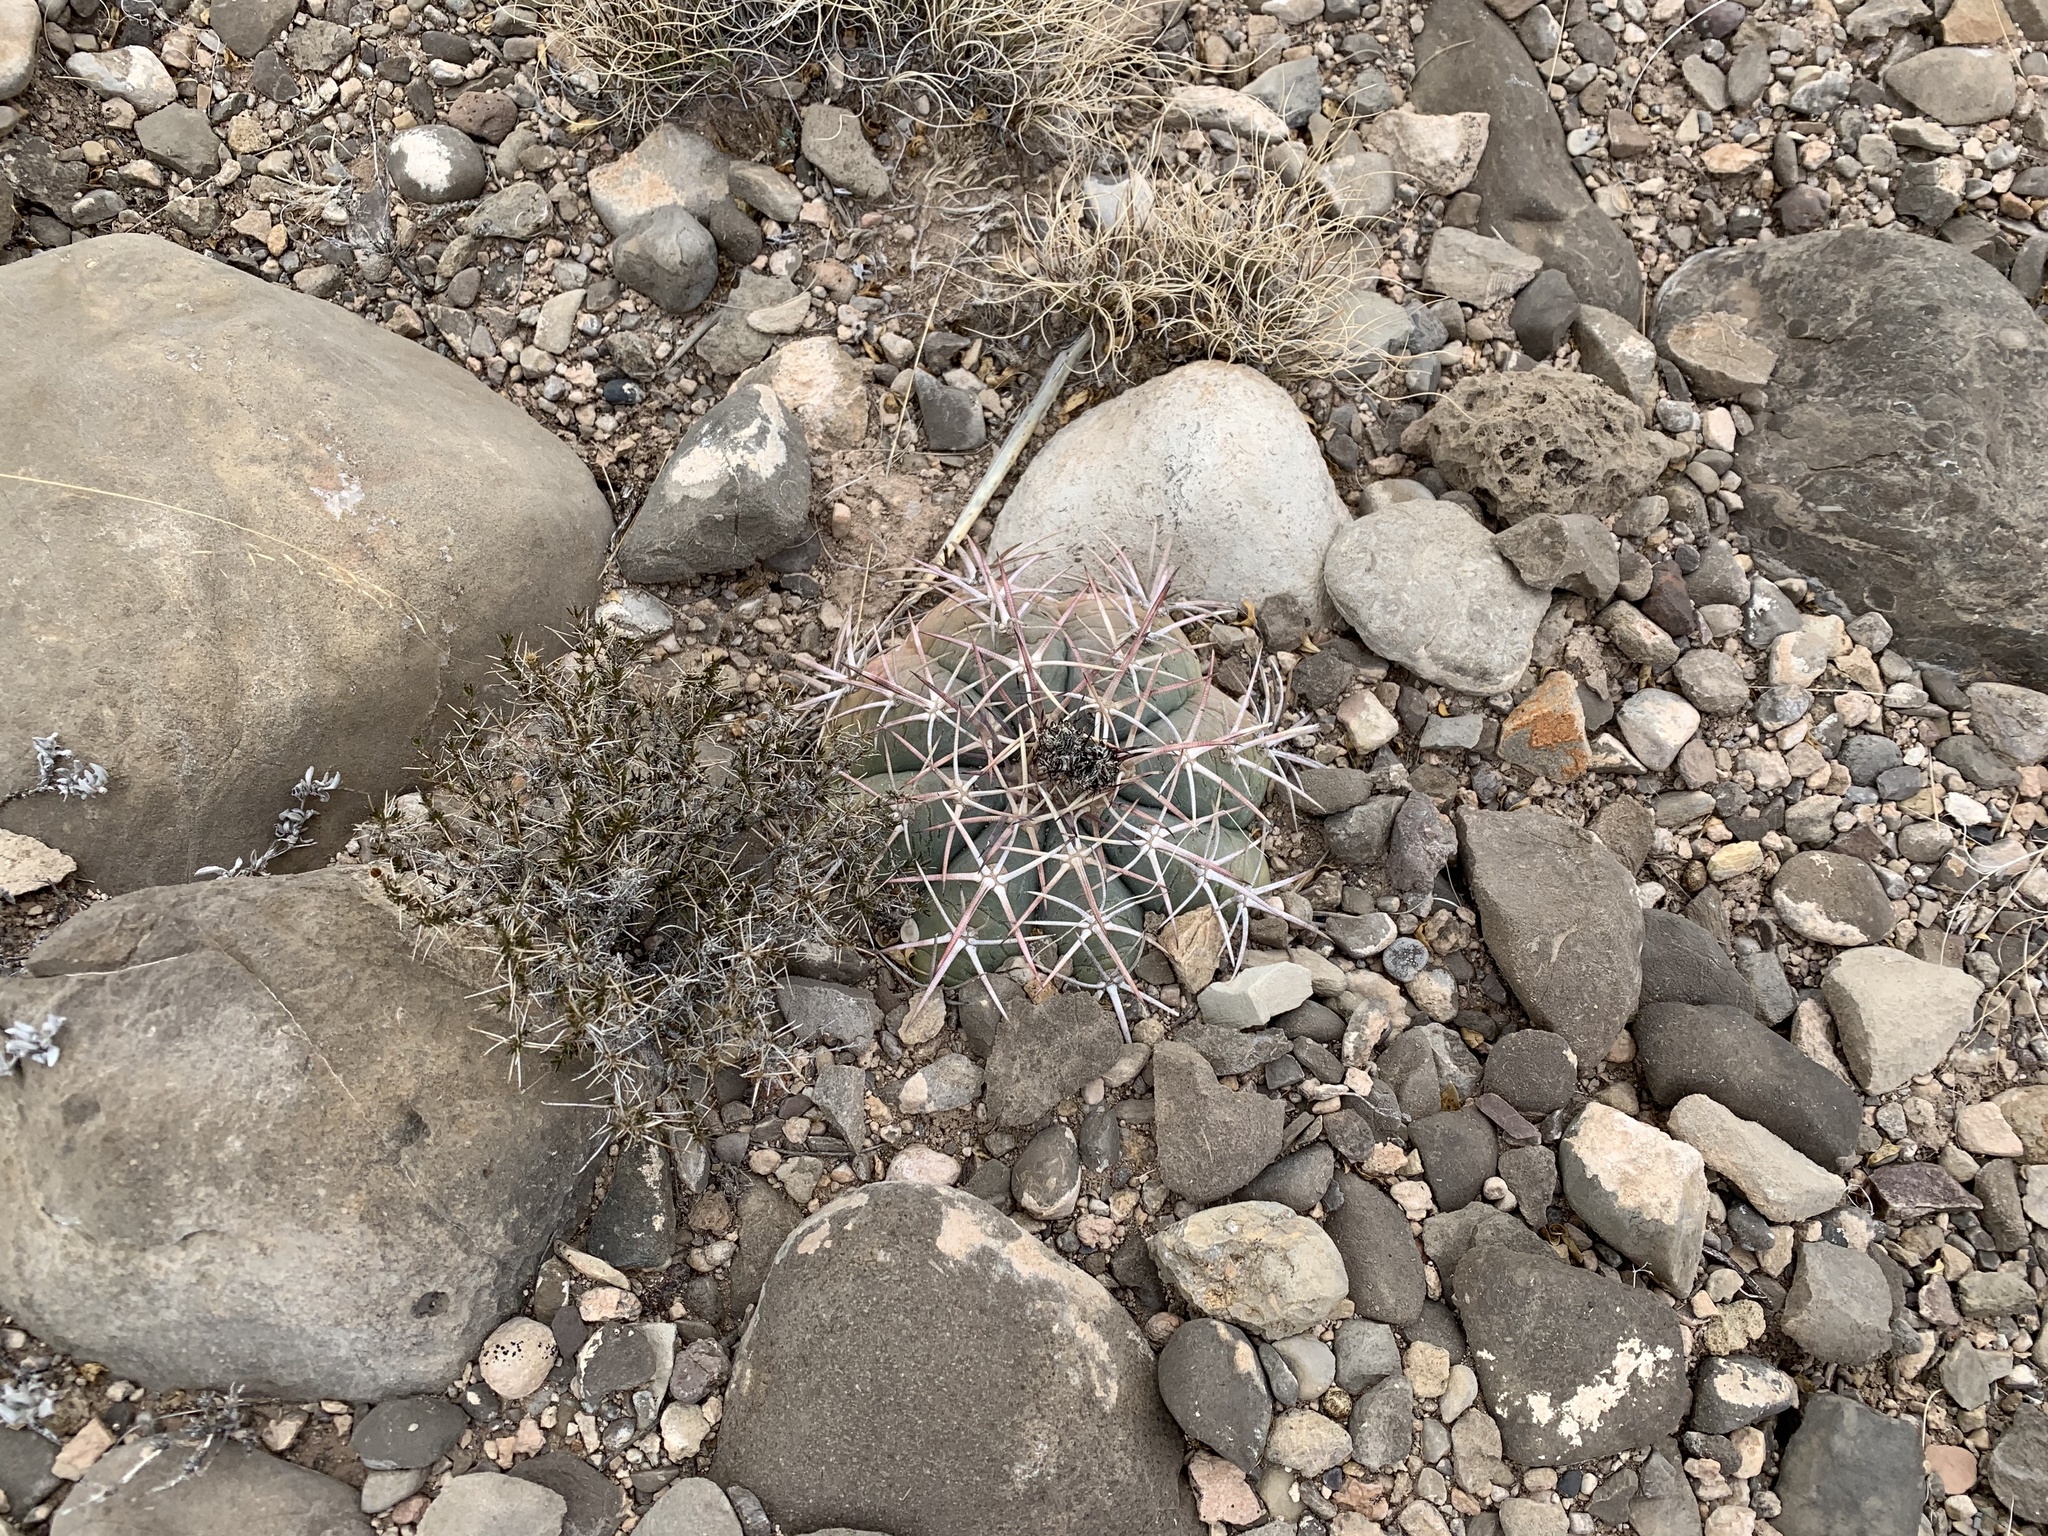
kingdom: Plantae
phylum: Tracheophyta
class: Magnoliopsida
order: Caryophyllales
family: Cactaceae
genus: Echinocactus
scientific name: Echinocactus horizonthalonius
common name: Devilshead
